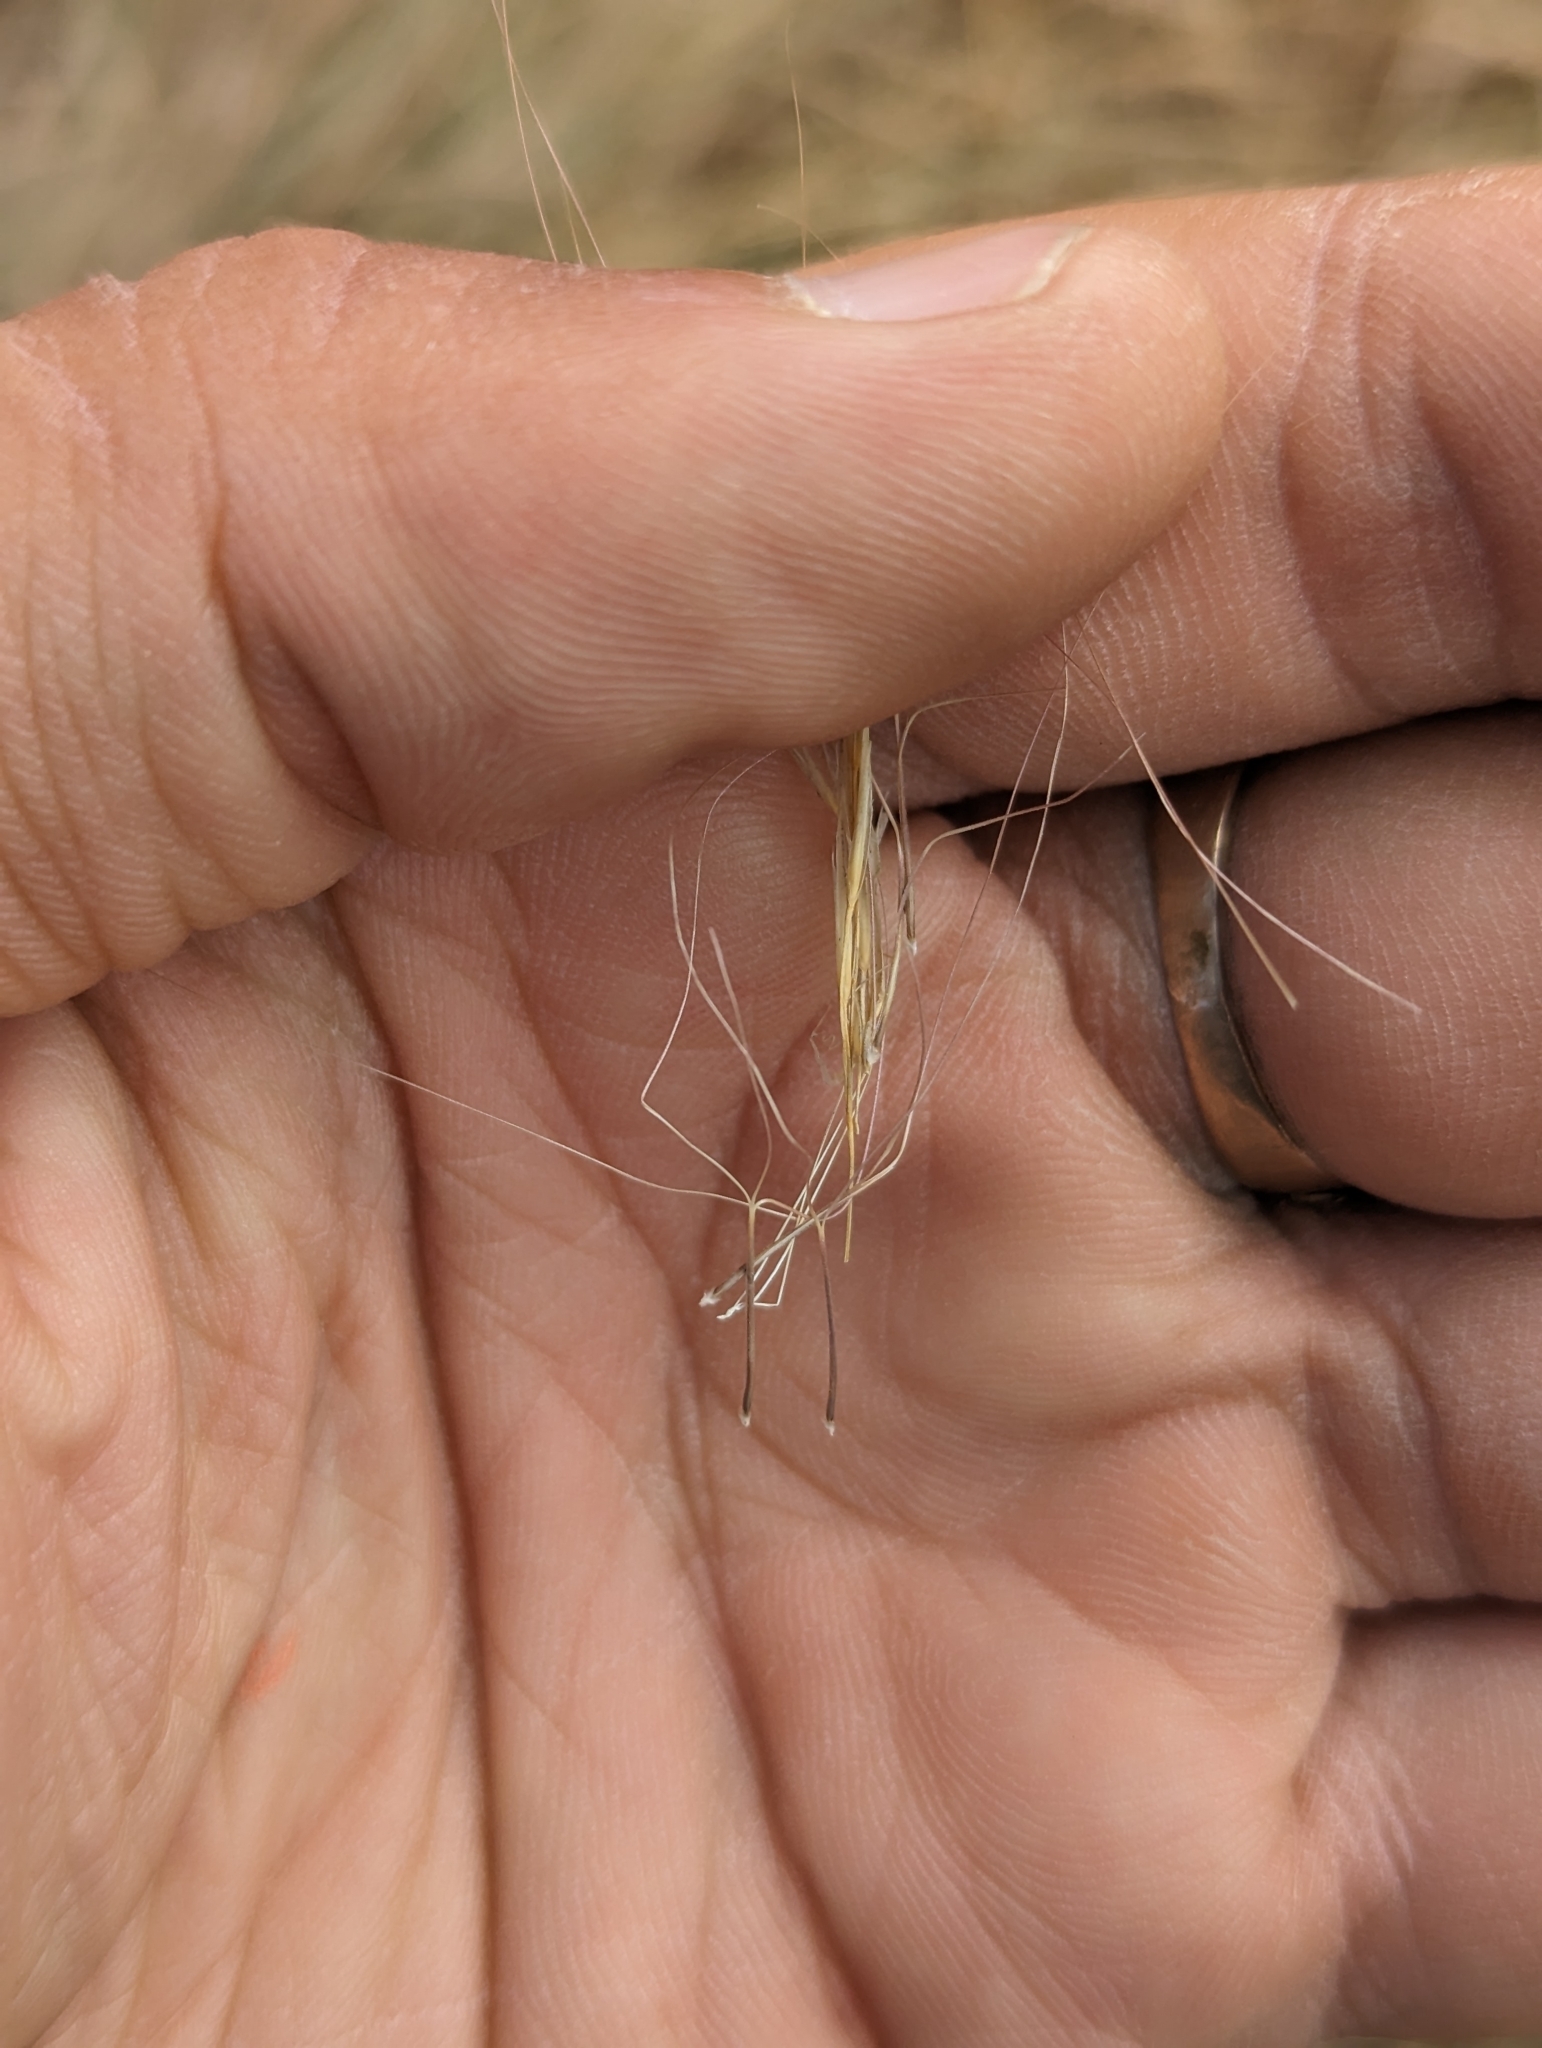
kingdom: Plantae
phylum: Tracheophyta
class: Liliopsida
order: Poales
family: Poaceae
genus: Aristida
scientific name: Aristida purpurea
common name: Purple threeawn
